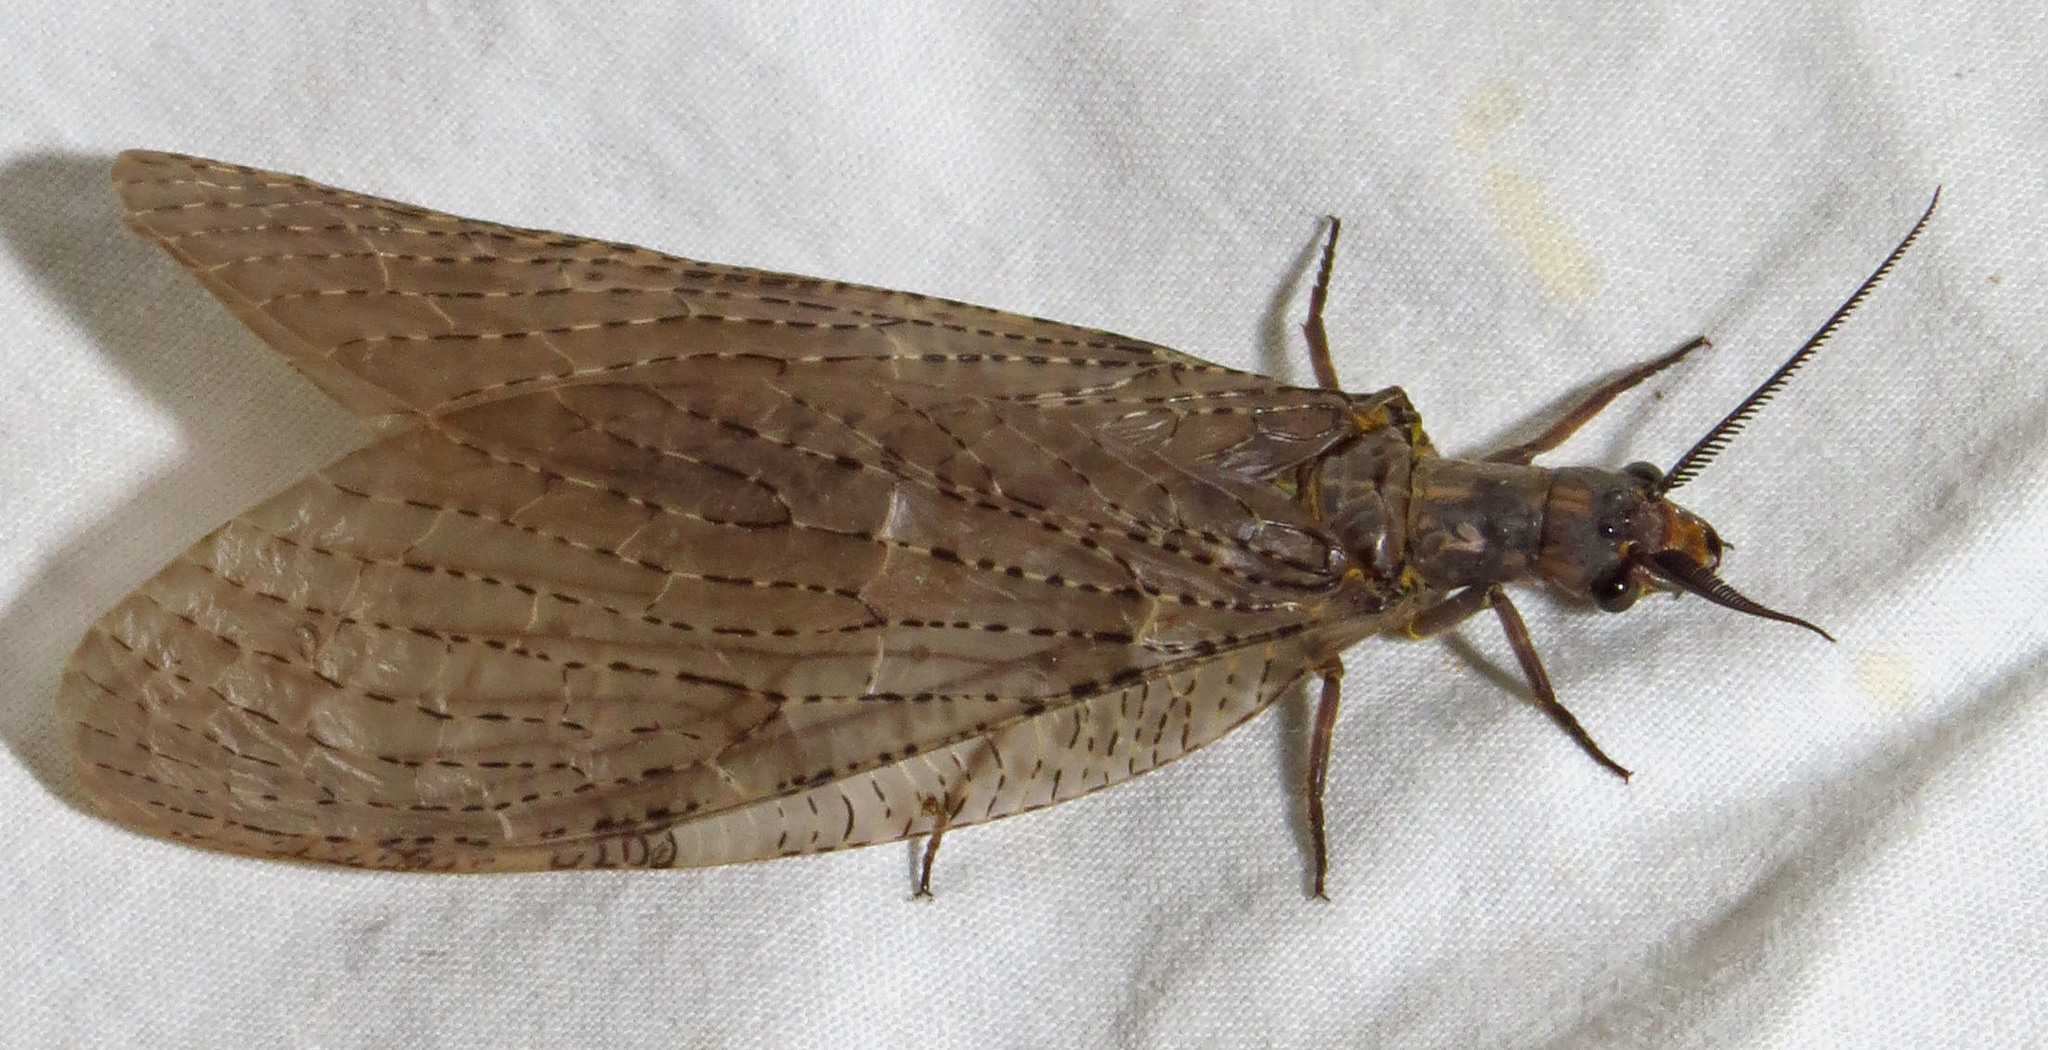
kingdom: Animalia
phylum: Arthropoda
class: Insecta
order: Megaloptera
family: Corydalidae
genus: Chauliodes
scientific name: Chauliodes pectinicornis
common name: Summer fishfly
